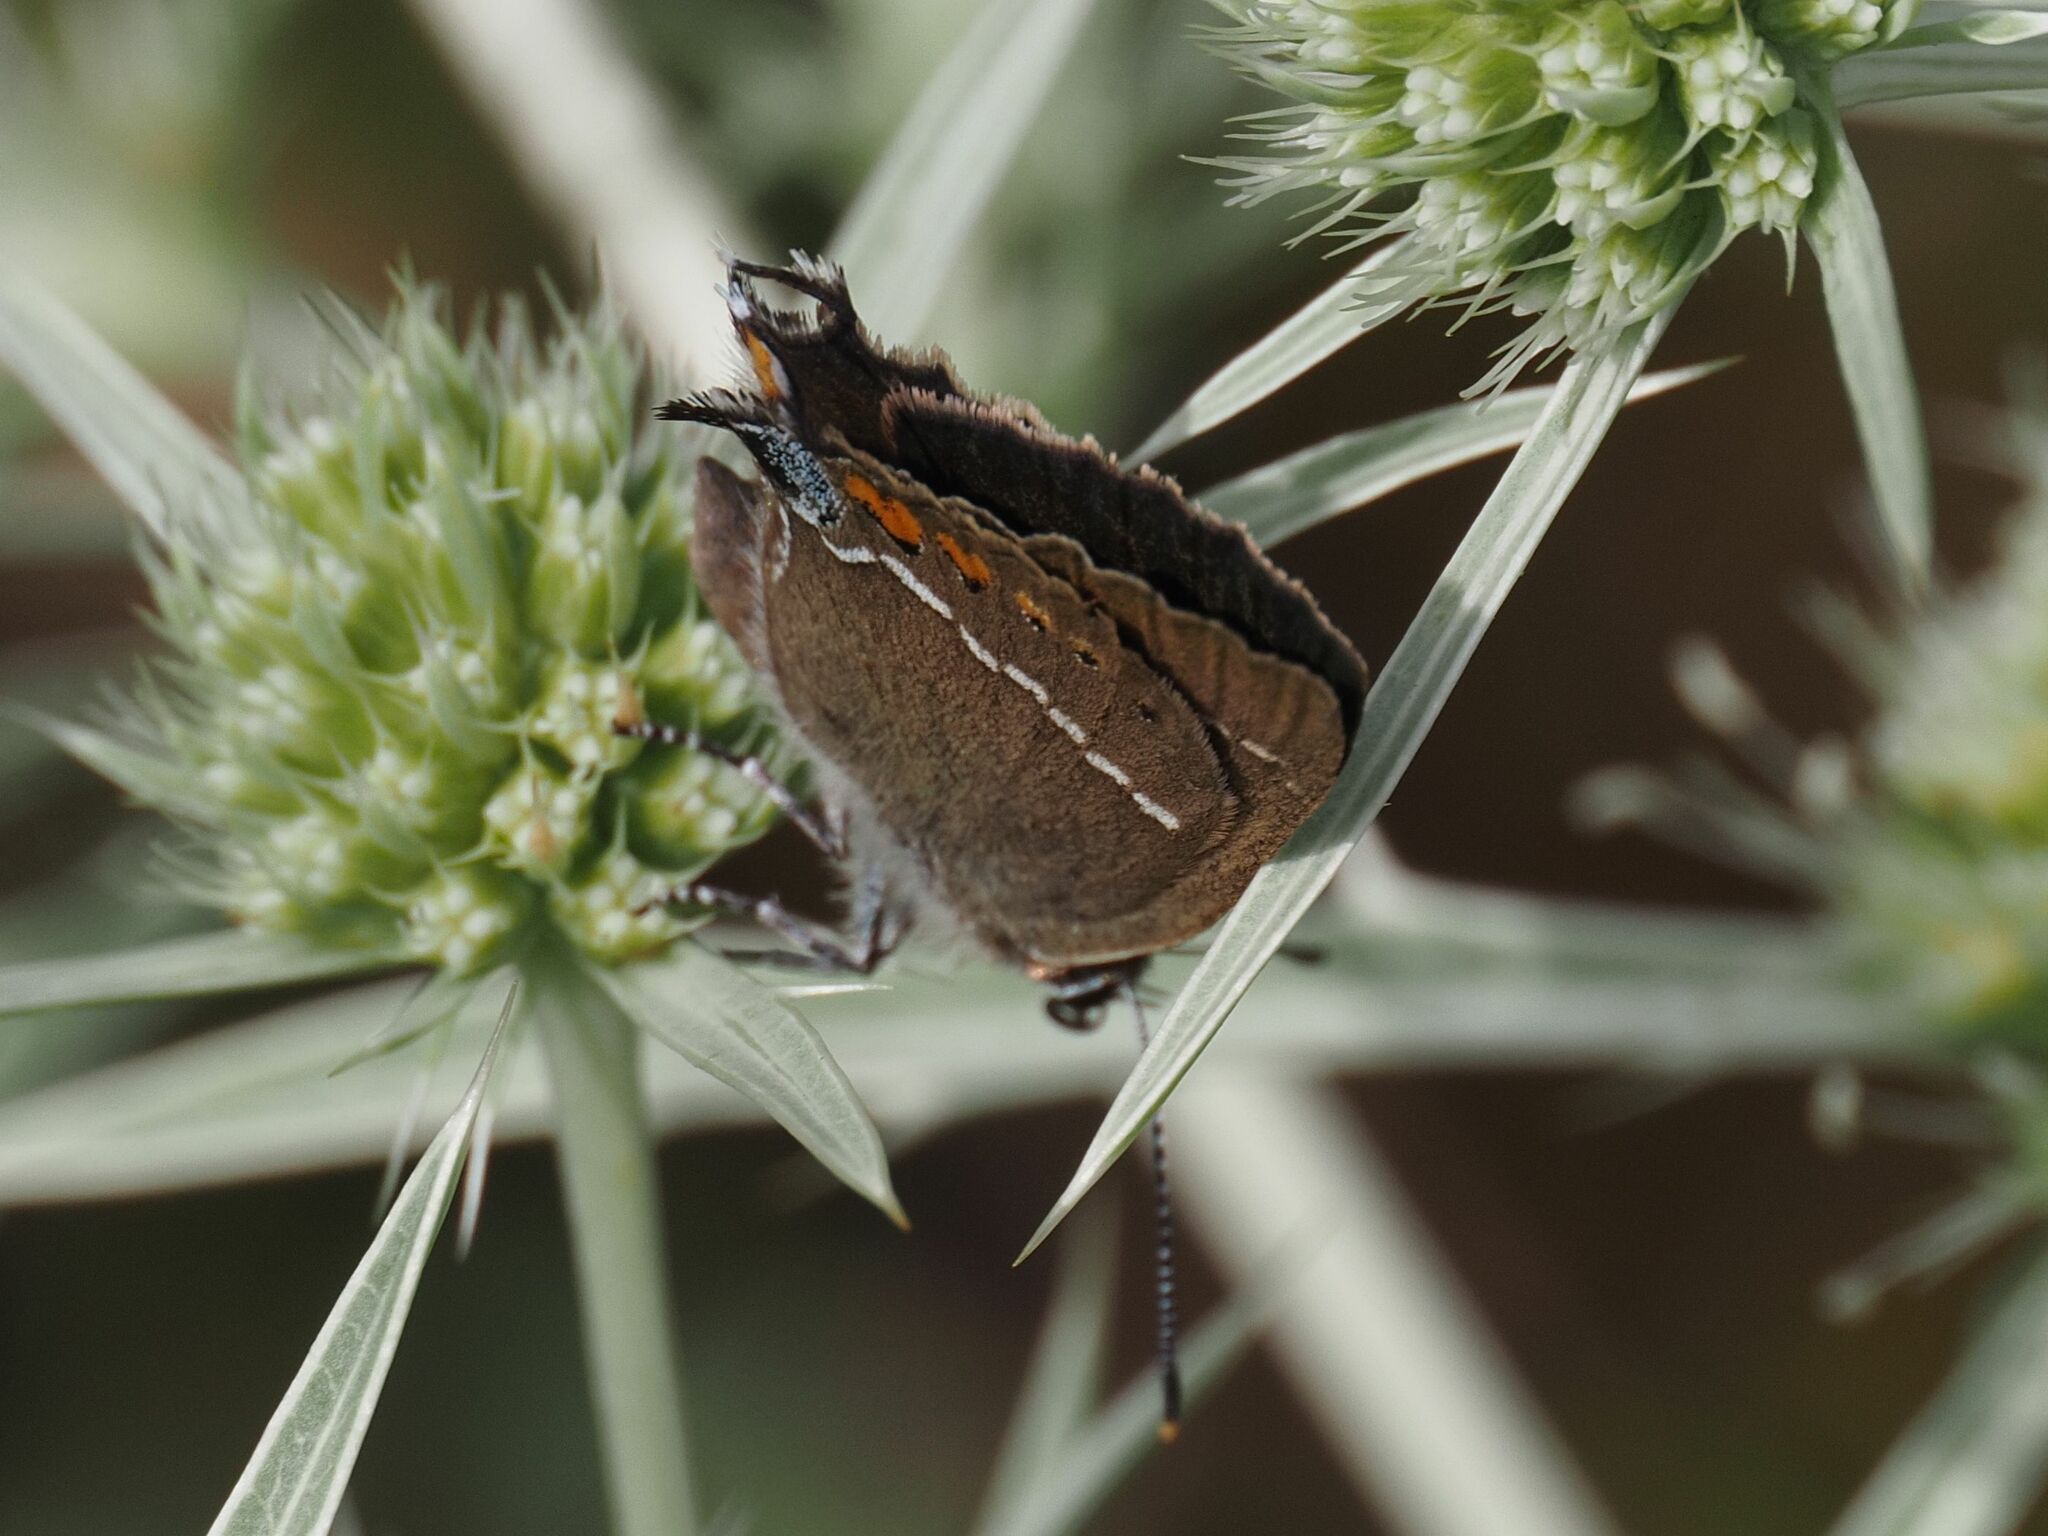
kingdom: Animalia
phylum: Arthropoda
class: Insecta
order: Lepidoptera
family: Lycaenidae
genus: Tuttiola
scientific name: Tuttiola spini
